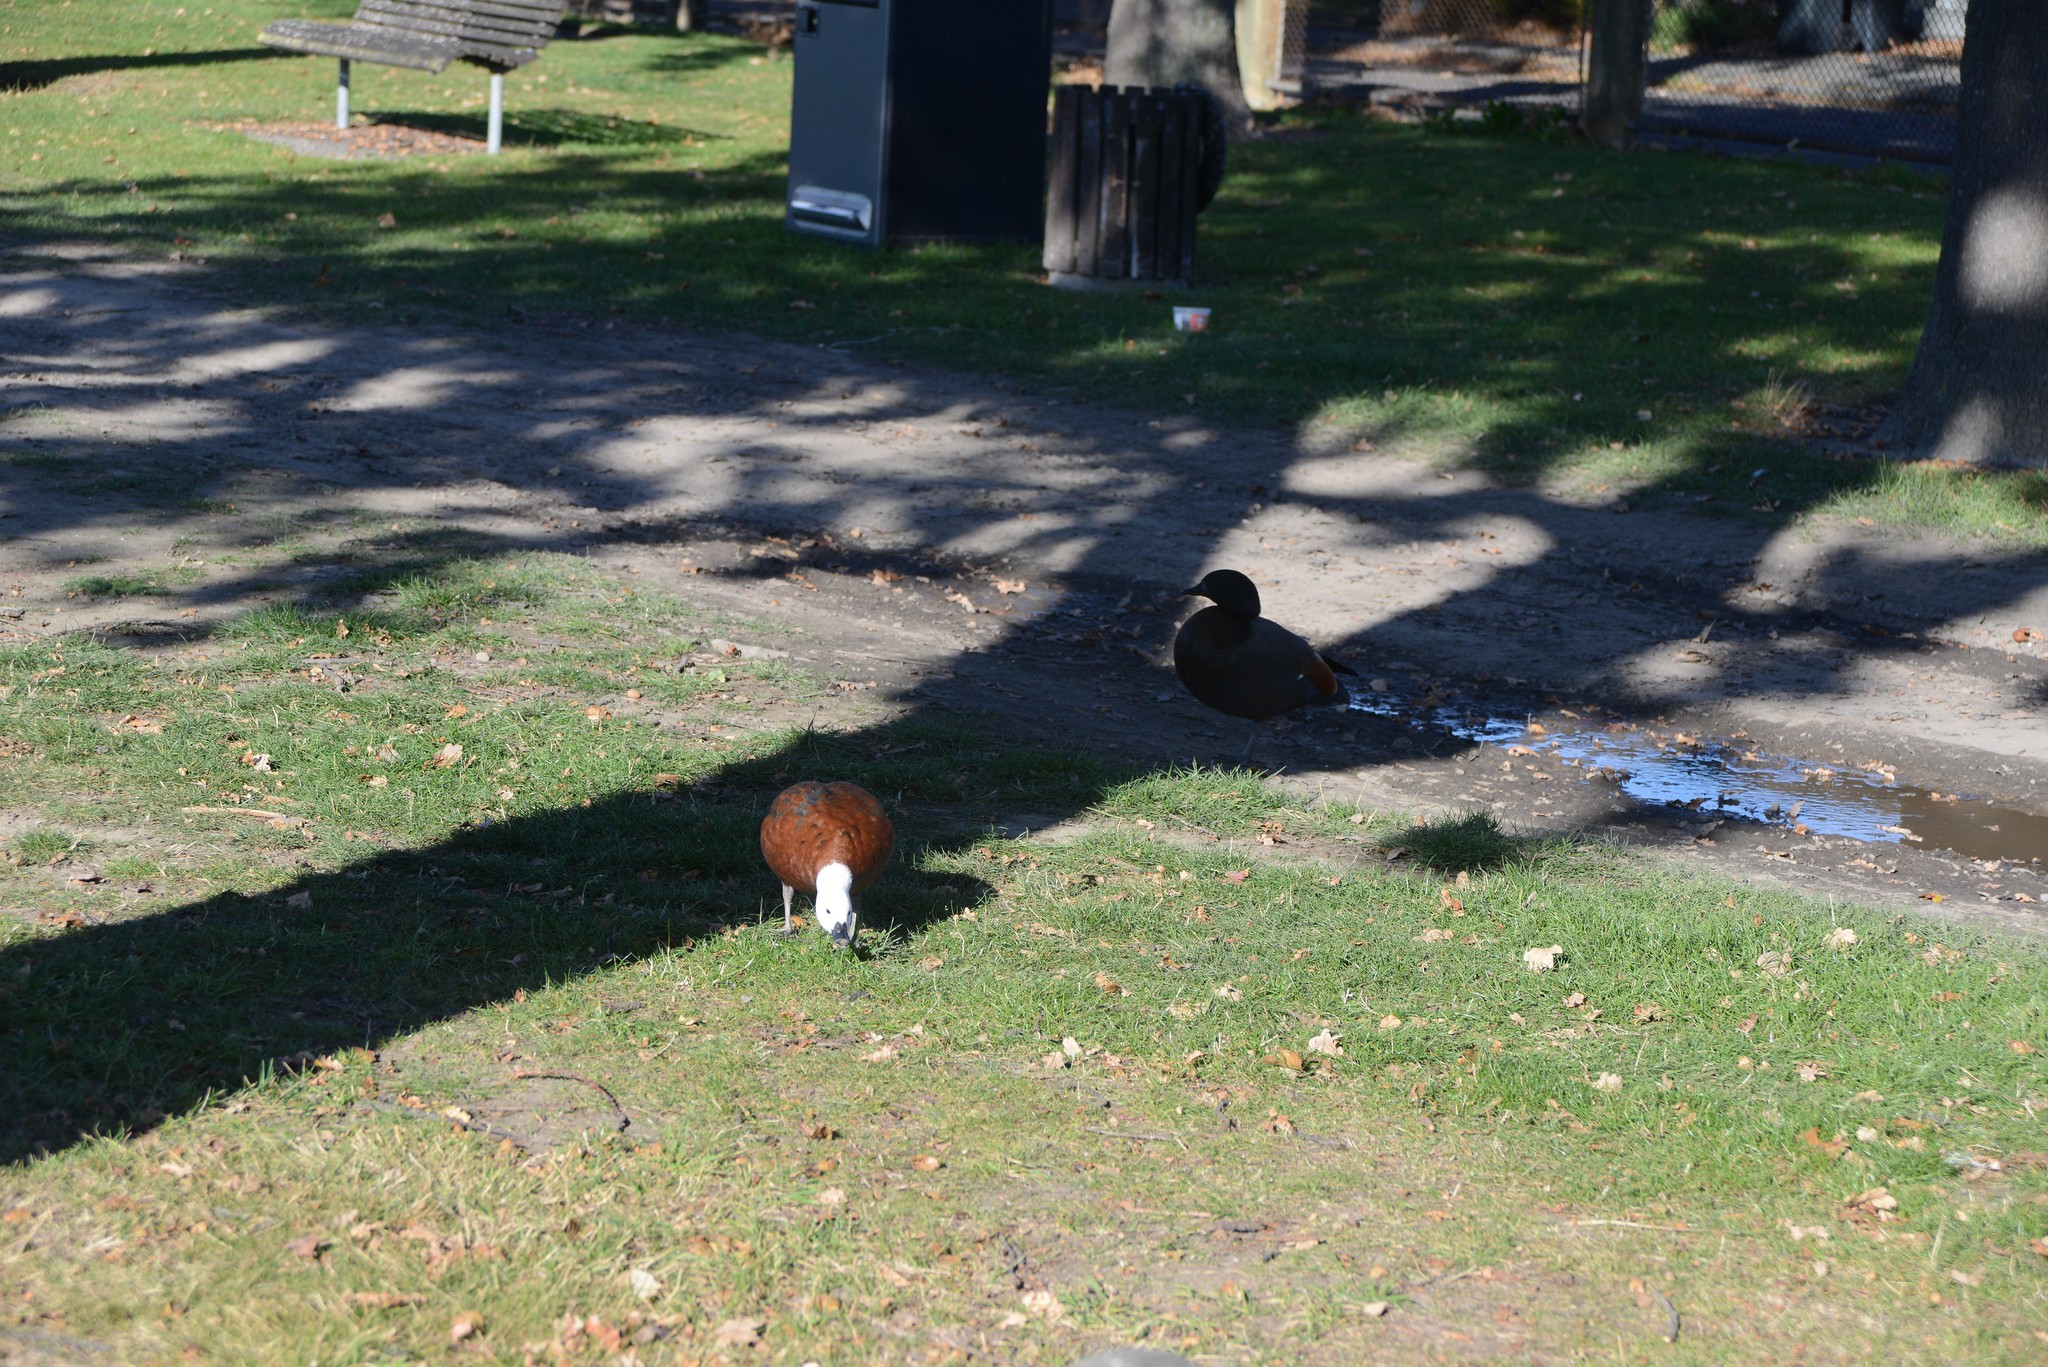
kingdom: Animalia
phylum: Chordata
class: Aves
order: Anseriformes
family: Anatidae
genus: Tadorna
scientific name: Tadorna variegata
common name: Paradise shelduck
